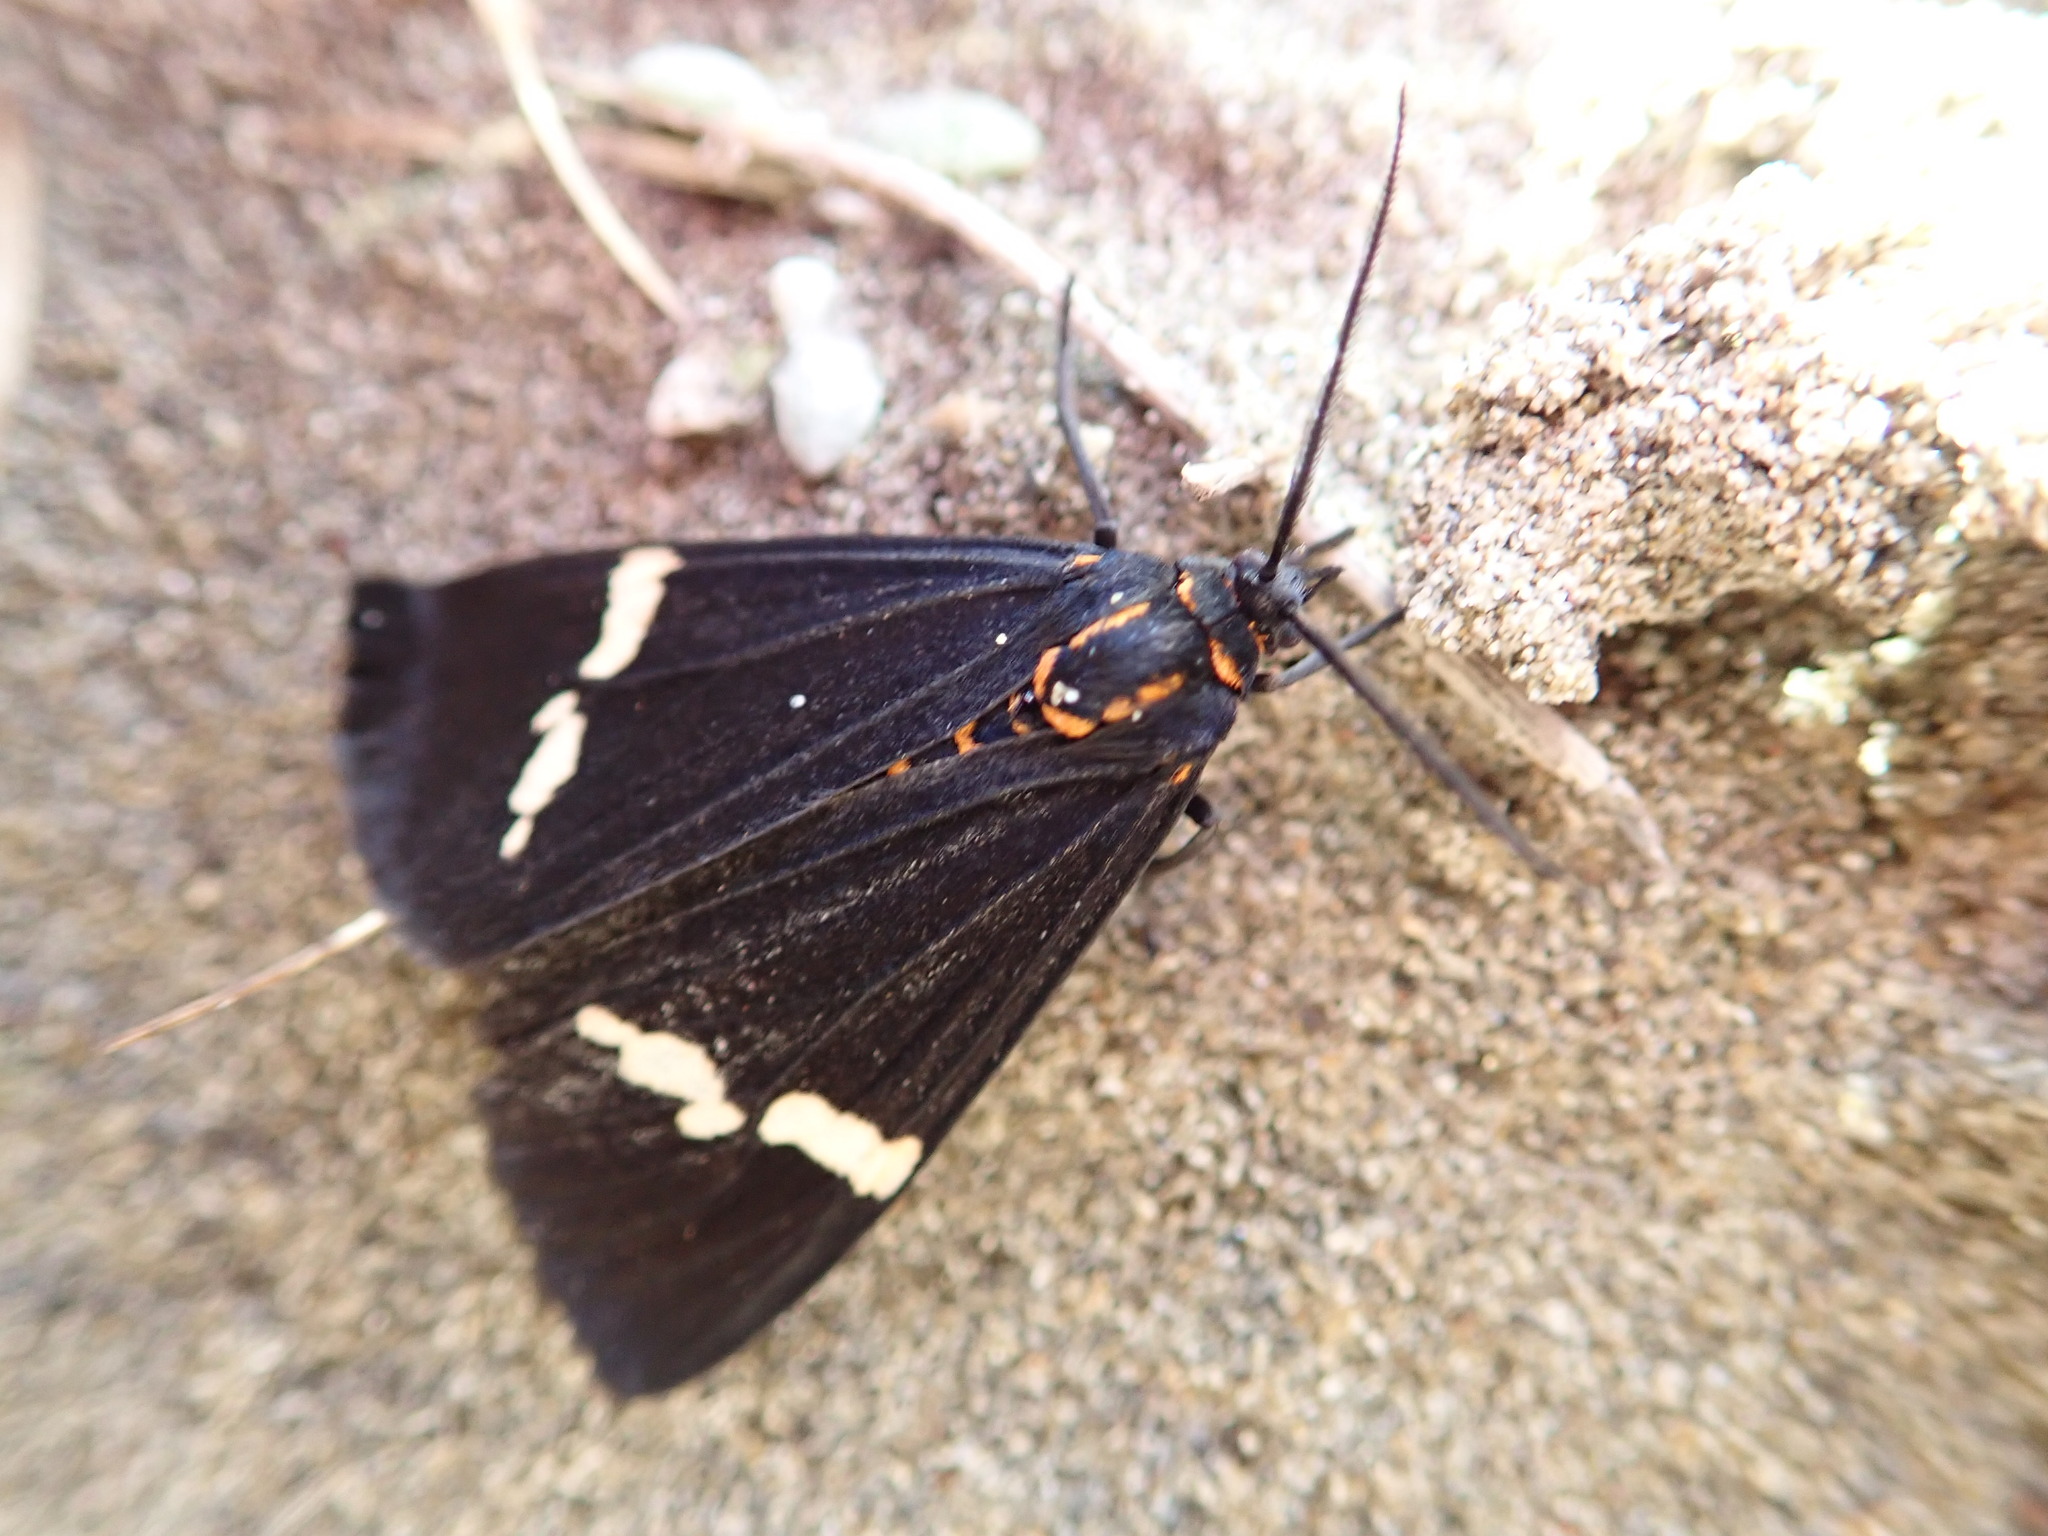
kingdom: Animalia
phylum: Arthropoda
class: Insecta
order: Lepidoptera
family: Erebidae
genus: Nyctemera
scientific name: Nyctemera annulatum
